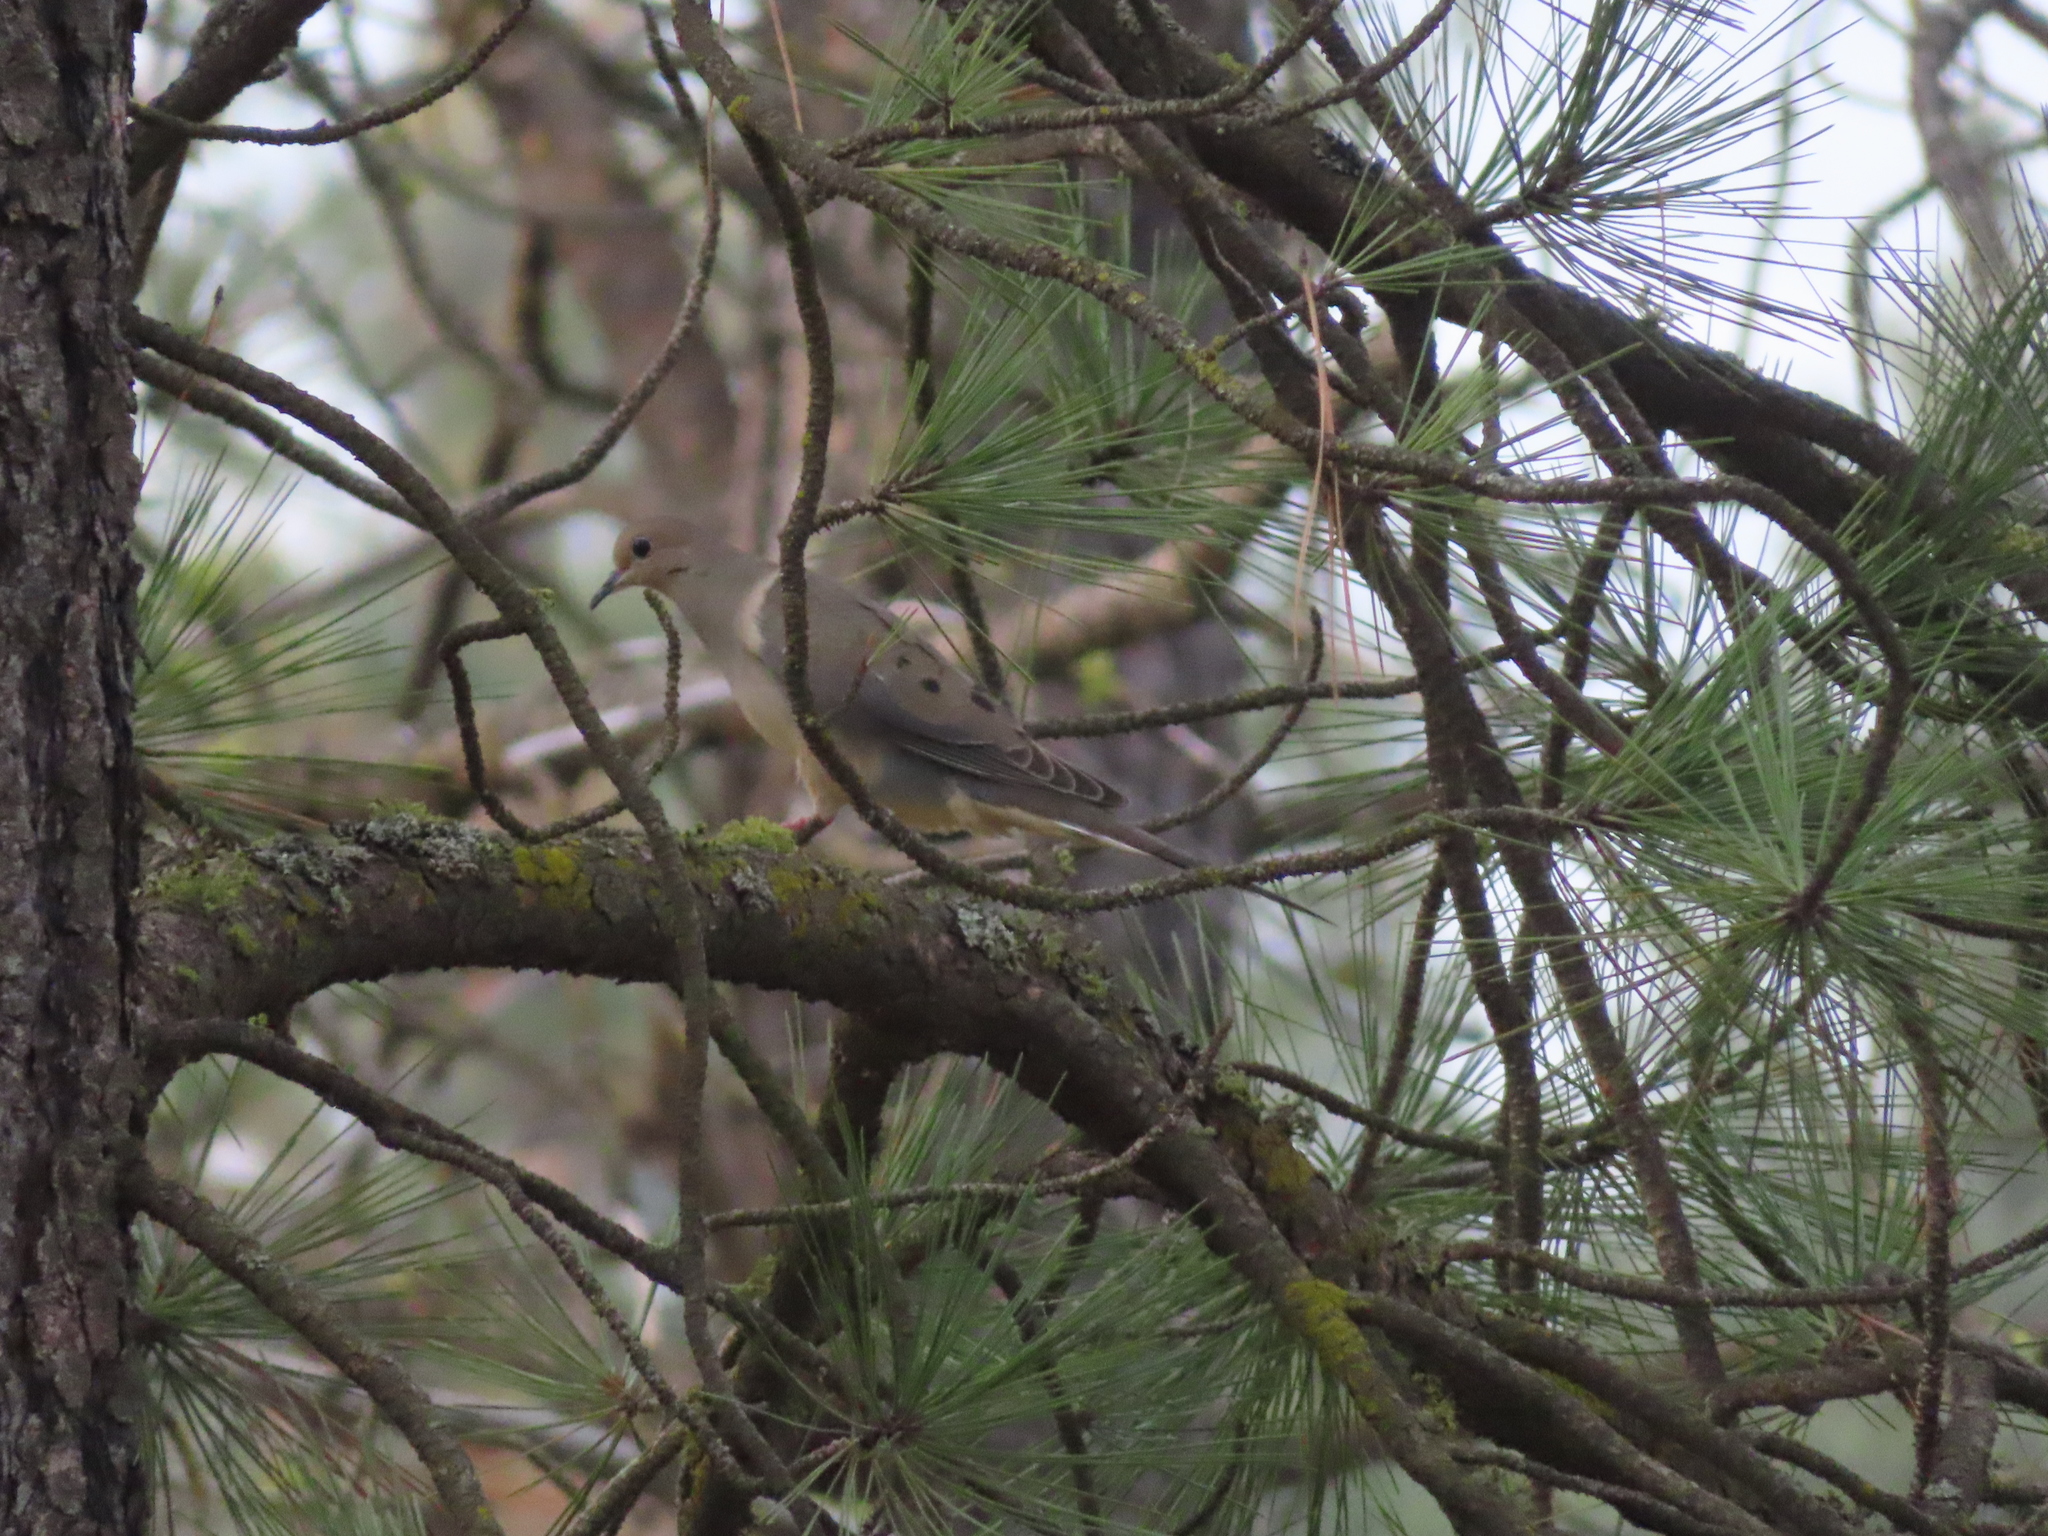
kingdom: Animalia
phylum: Chordata
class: Aves
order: Columbiformes
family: Columbidae
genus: Zenaida
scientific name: Zenaida macroura
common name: Mourning dove
